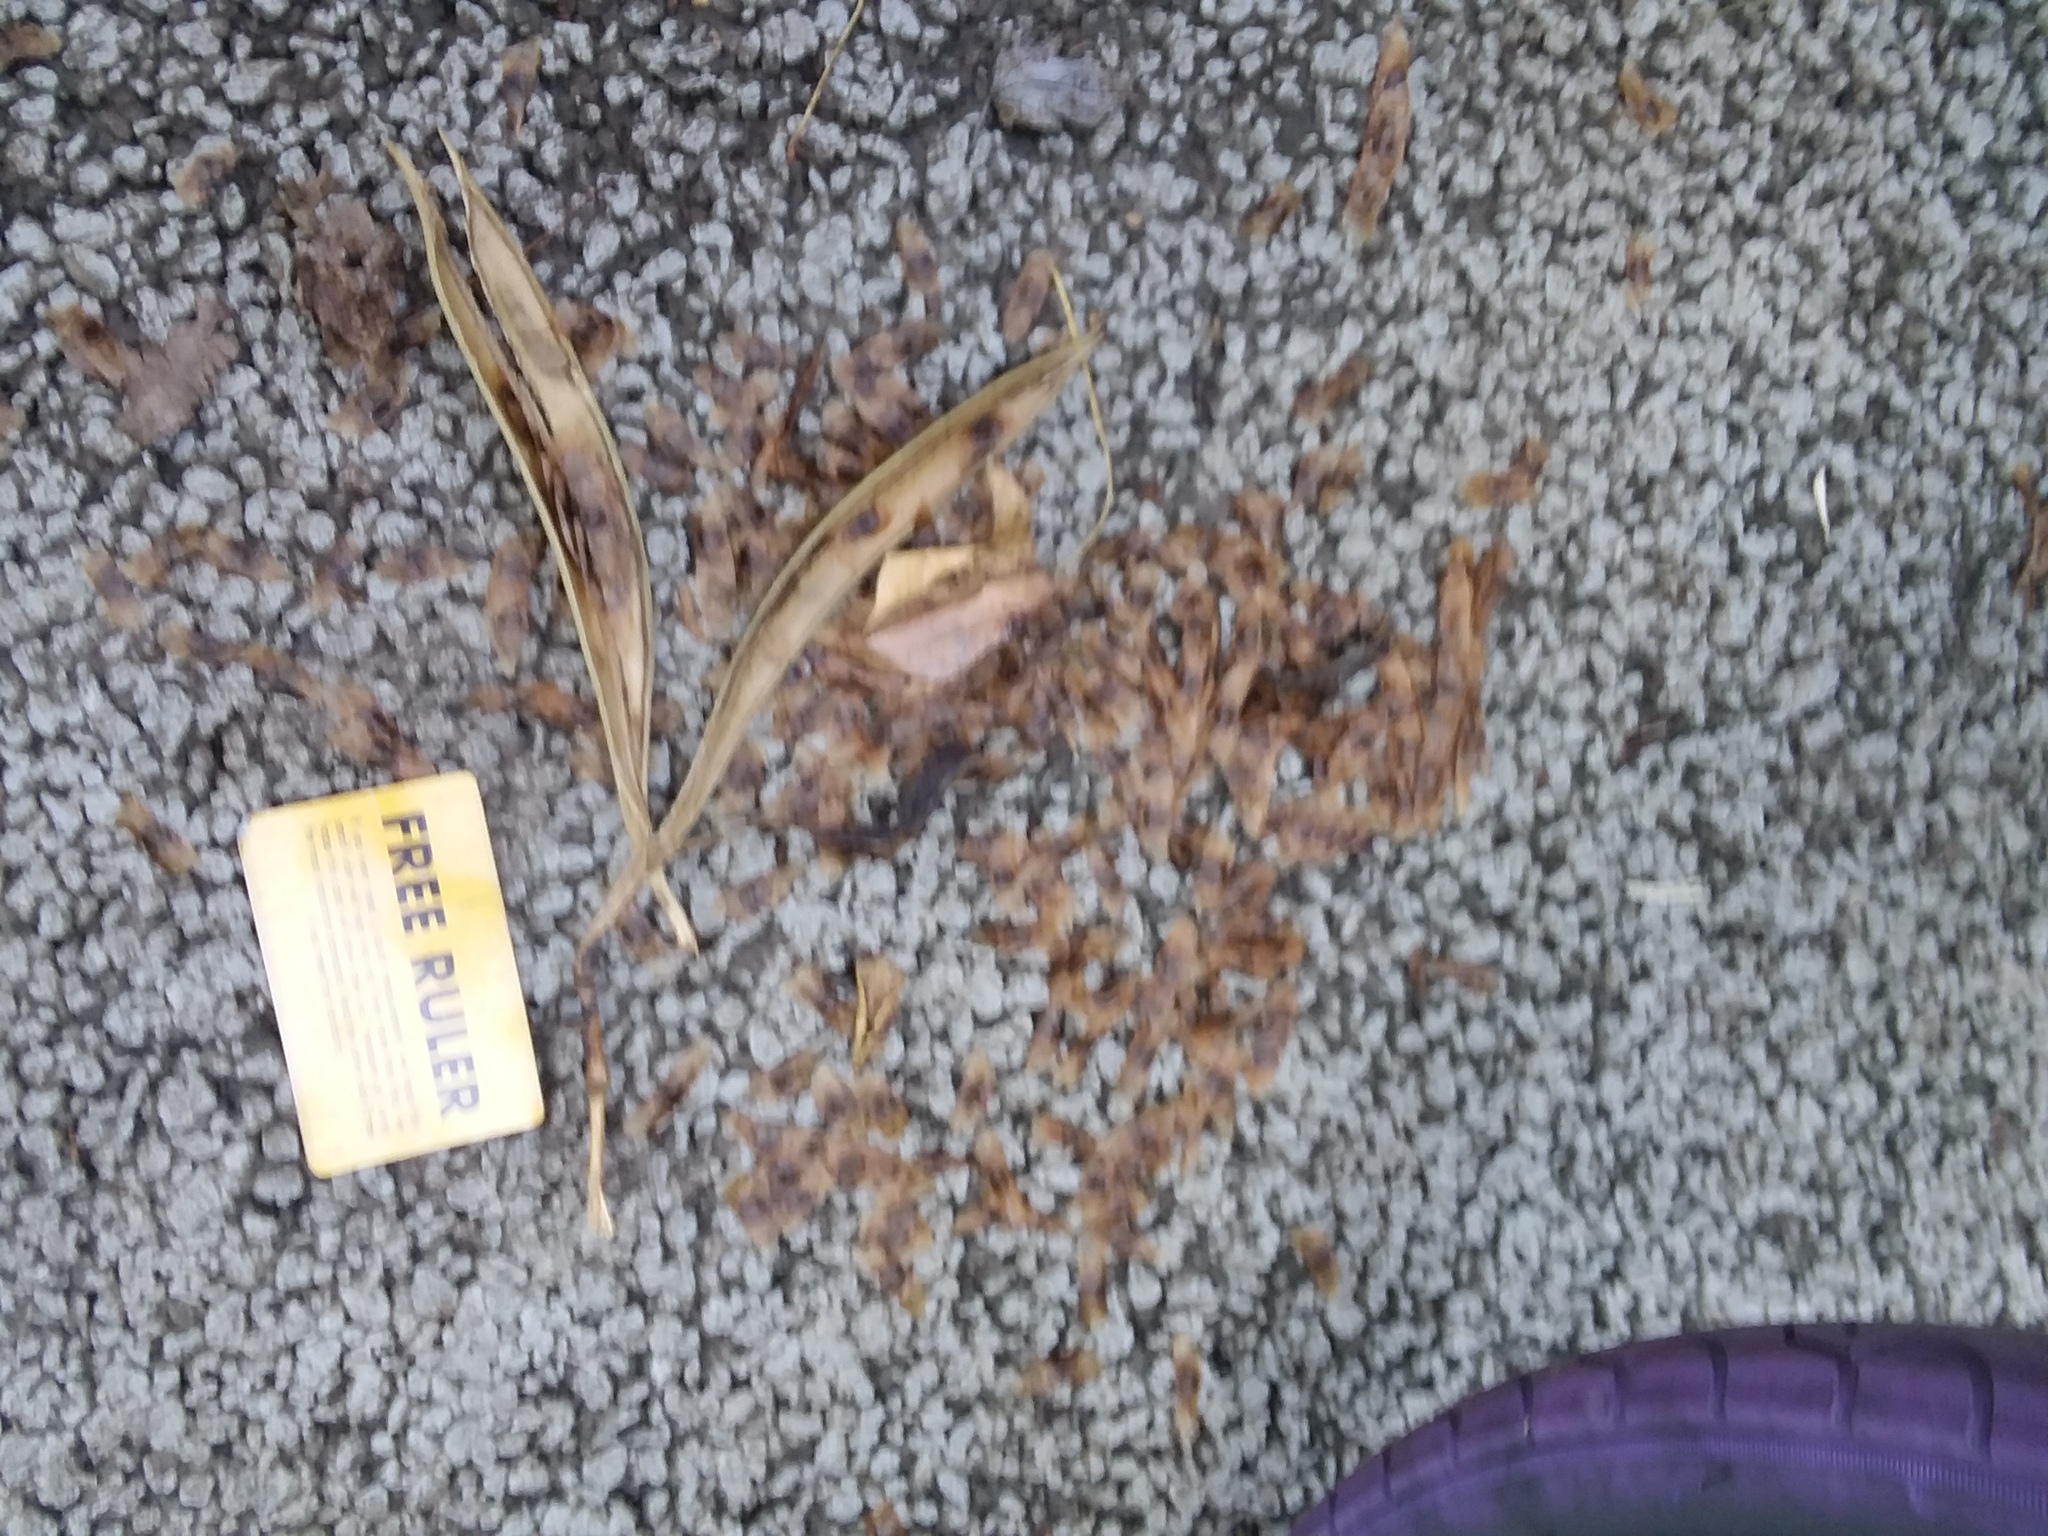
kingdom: Plantae
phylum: Tracheophyta
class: Magnoliopsida
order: Lamiales
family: Bignoniaceae
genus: Campsis
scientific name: Campsis radicans
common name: Trumpet-creeper
